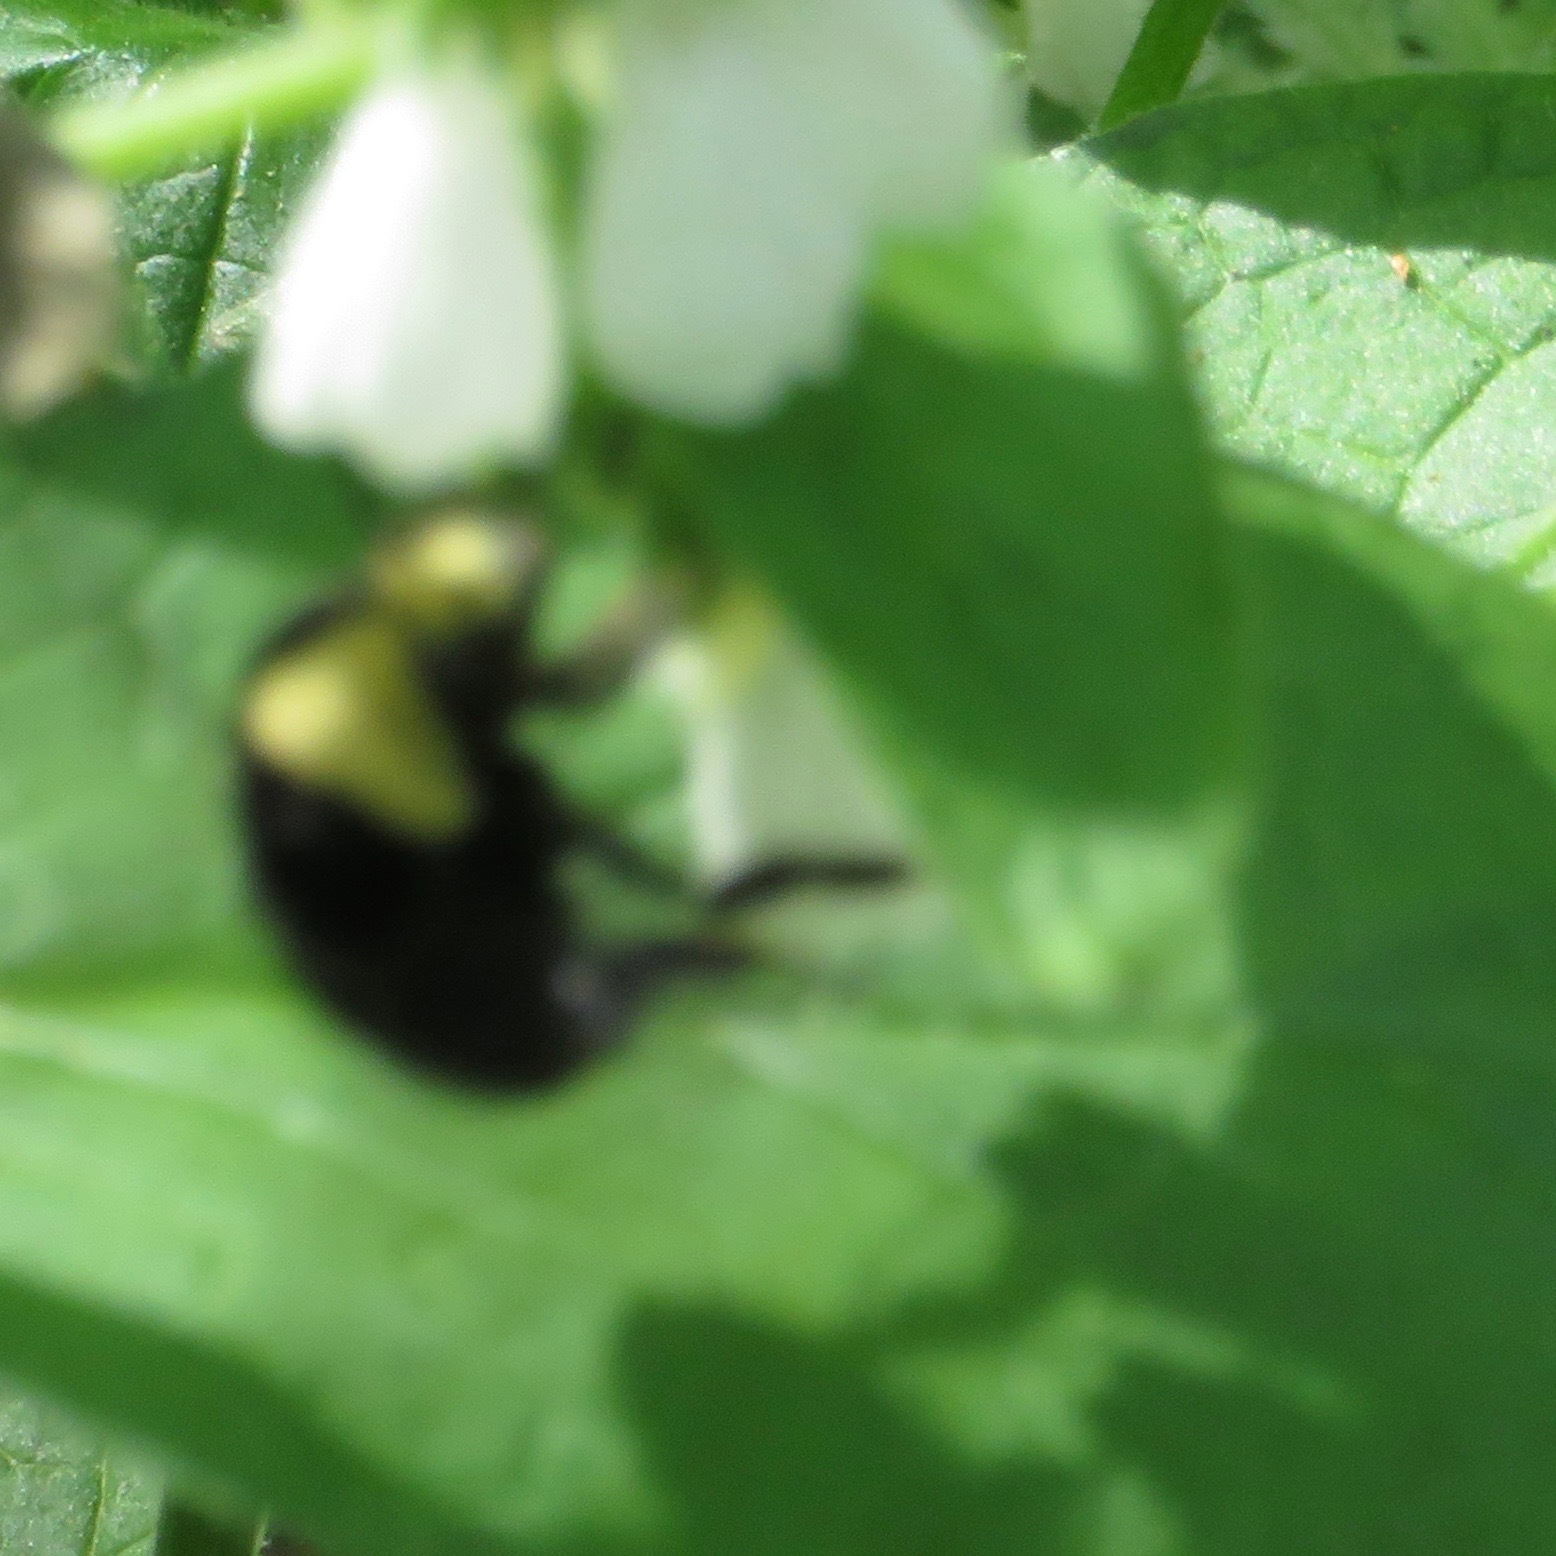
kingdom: Animalia
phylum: Arthropoda
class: Insecta
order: Hymenoptera
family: Apidae
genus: Pyrobombus
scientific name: Pyrobombus
